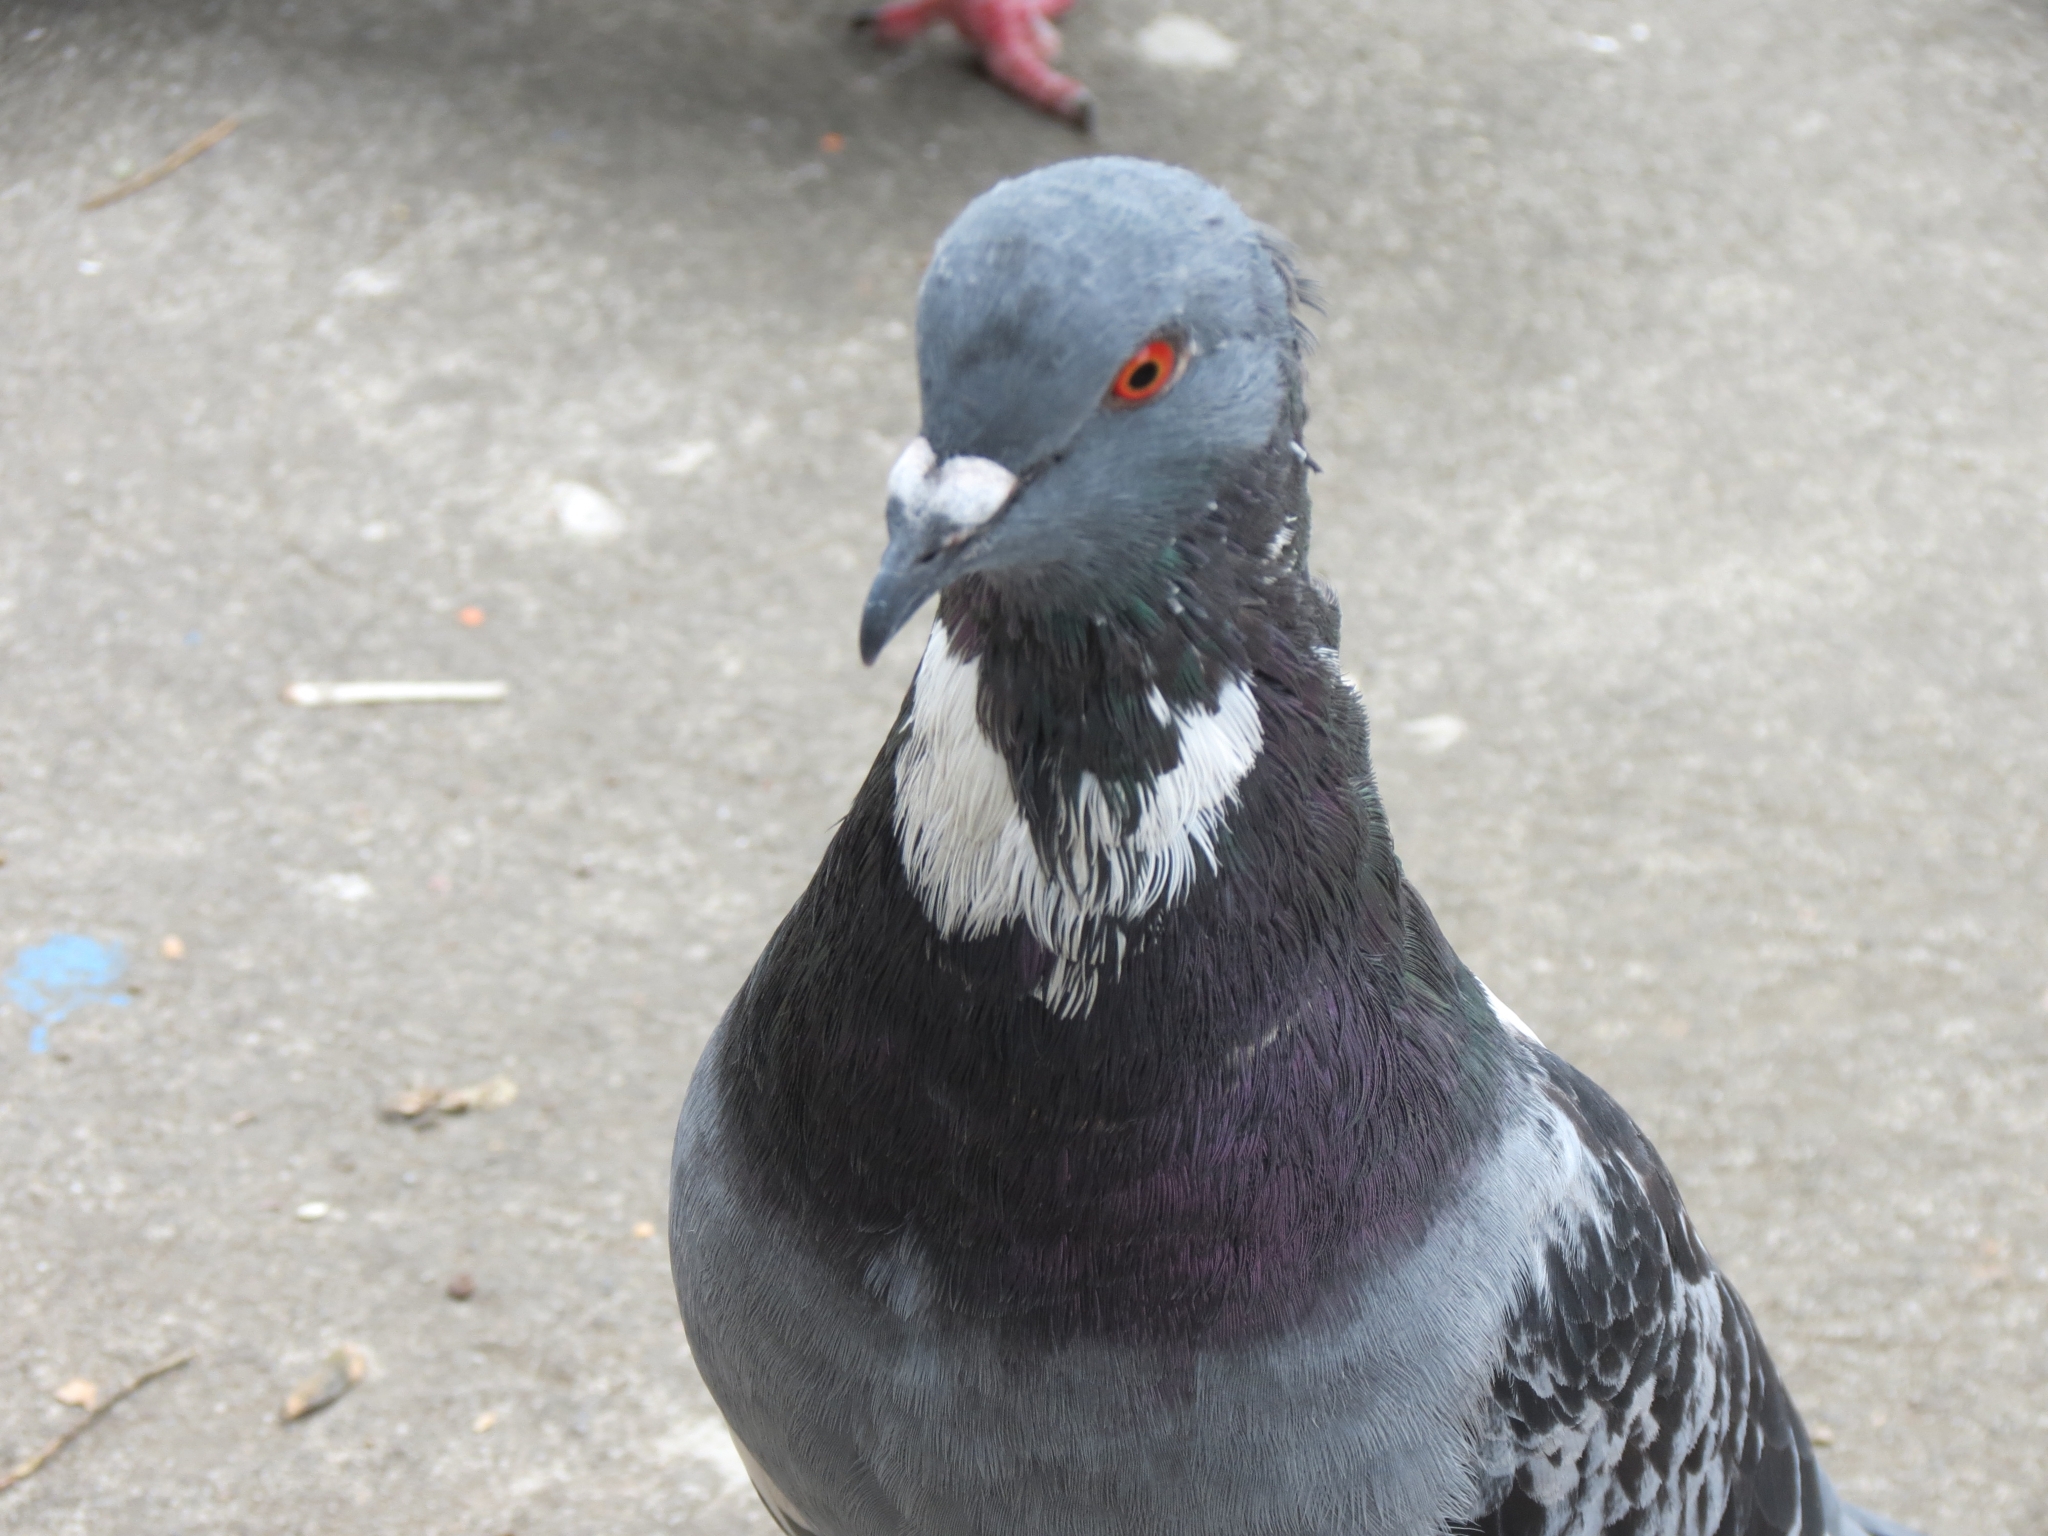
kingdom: Animalia
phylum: Chordata
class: Aves
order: Columbiformes
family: Columbidae
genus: Columba
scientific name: Columba livia
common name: Rock pigeon
